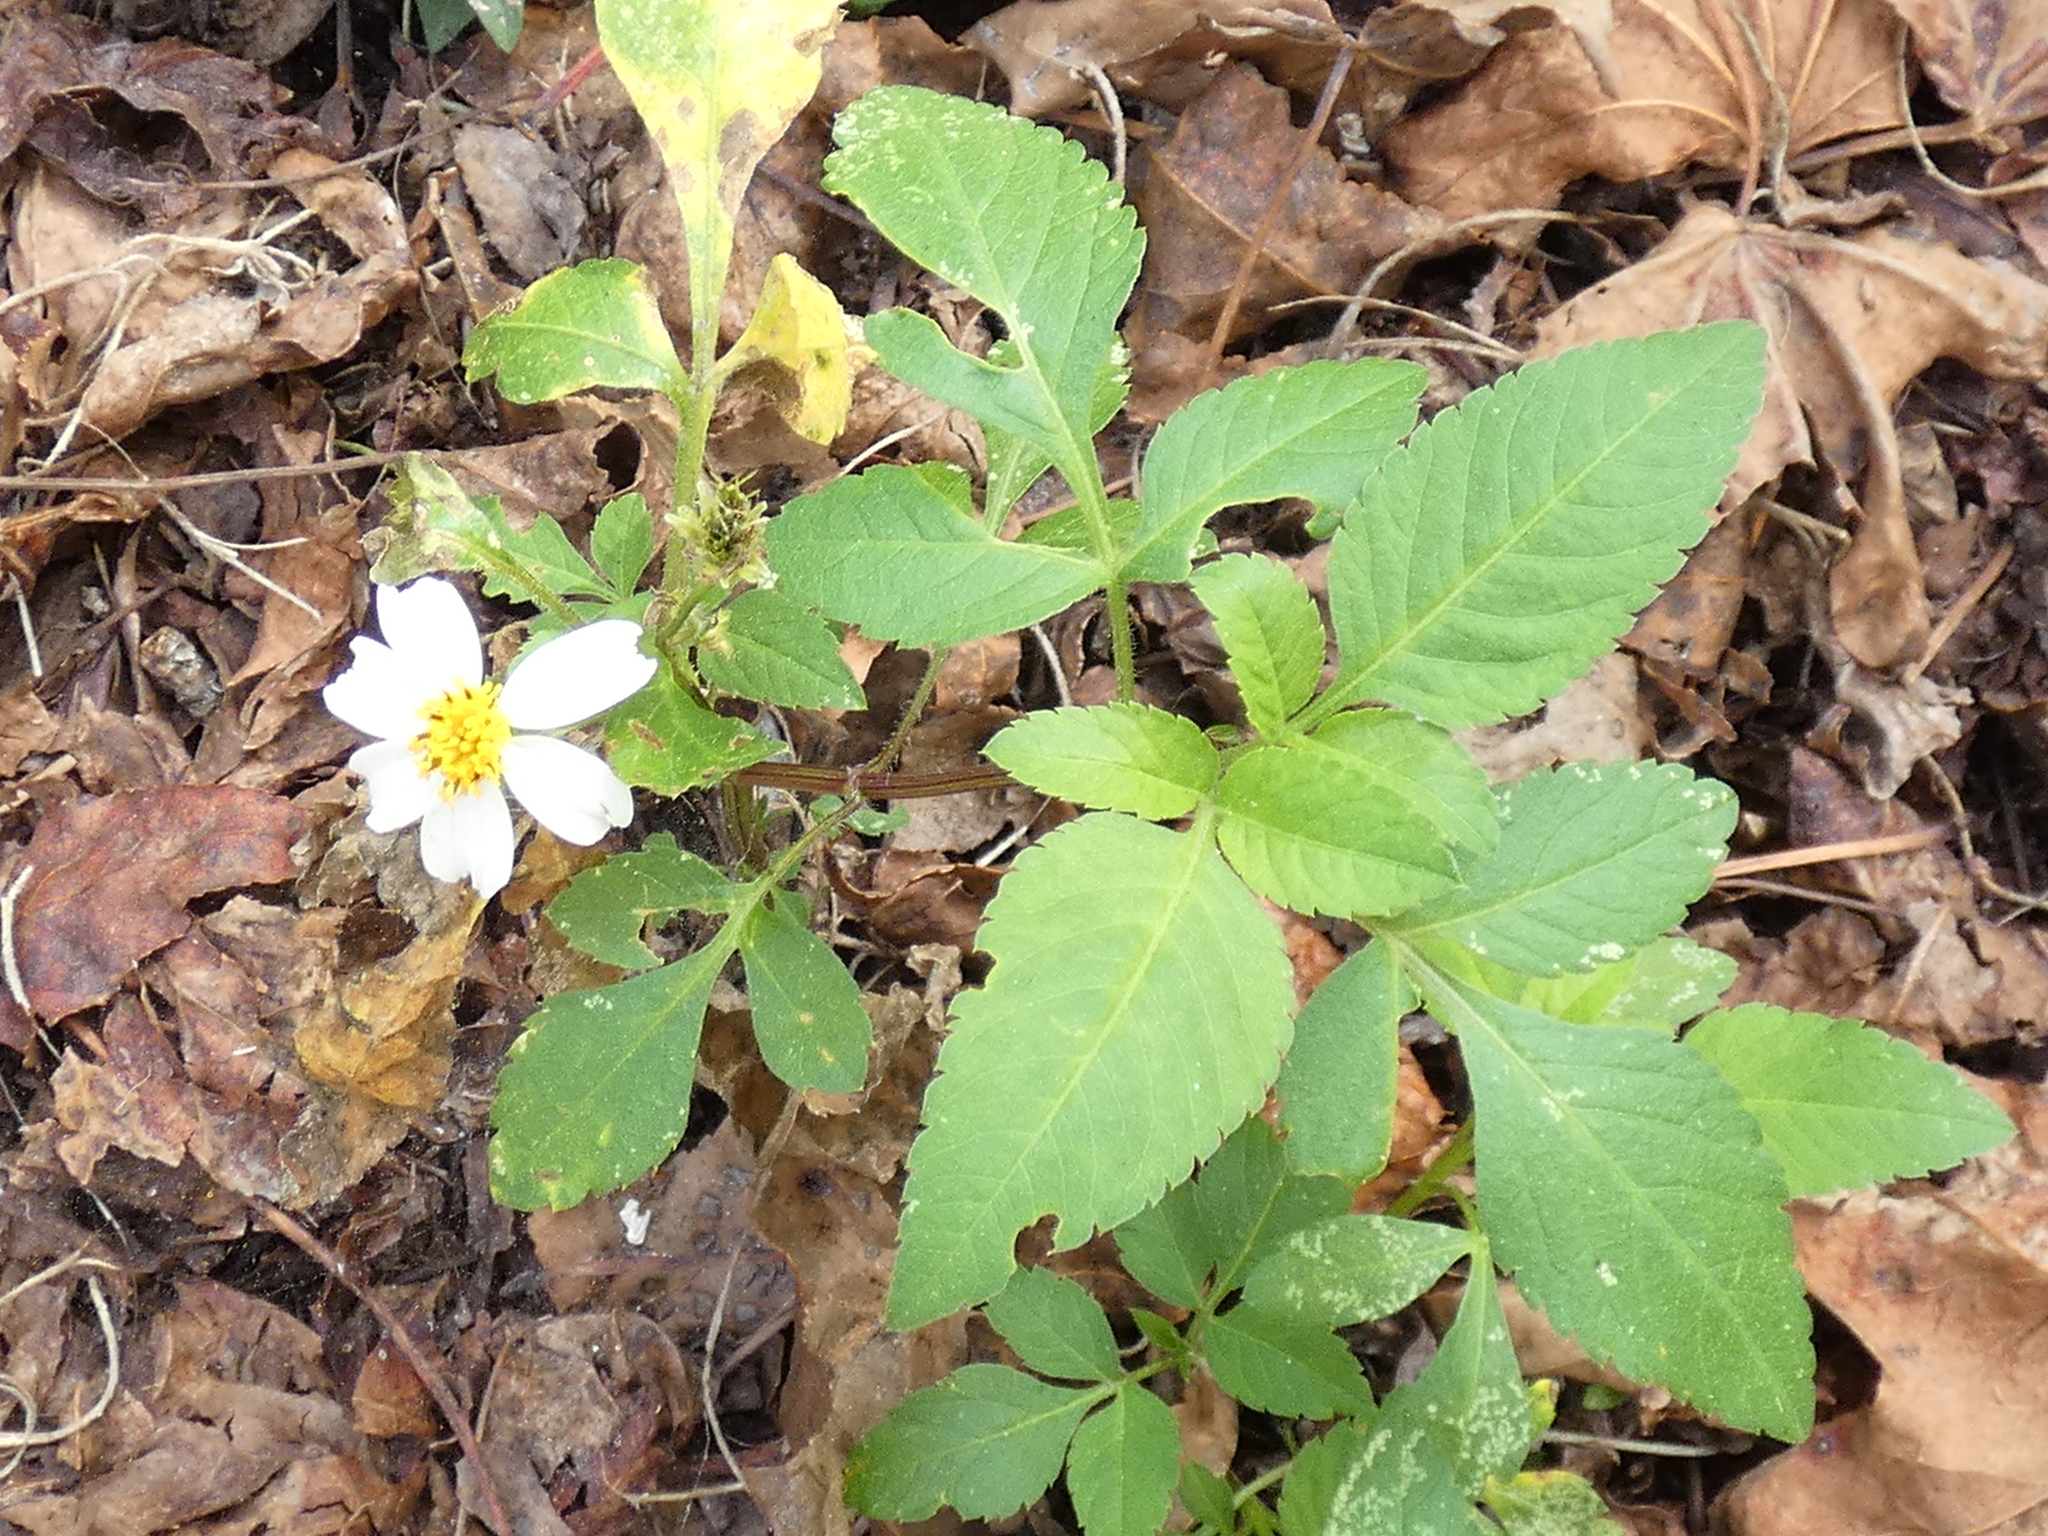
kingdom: Plantae
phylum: Tracheophyta
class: Magnoliopsida
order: Asterales
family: Asteraceae
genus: Bidens
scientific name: Bidens alba
